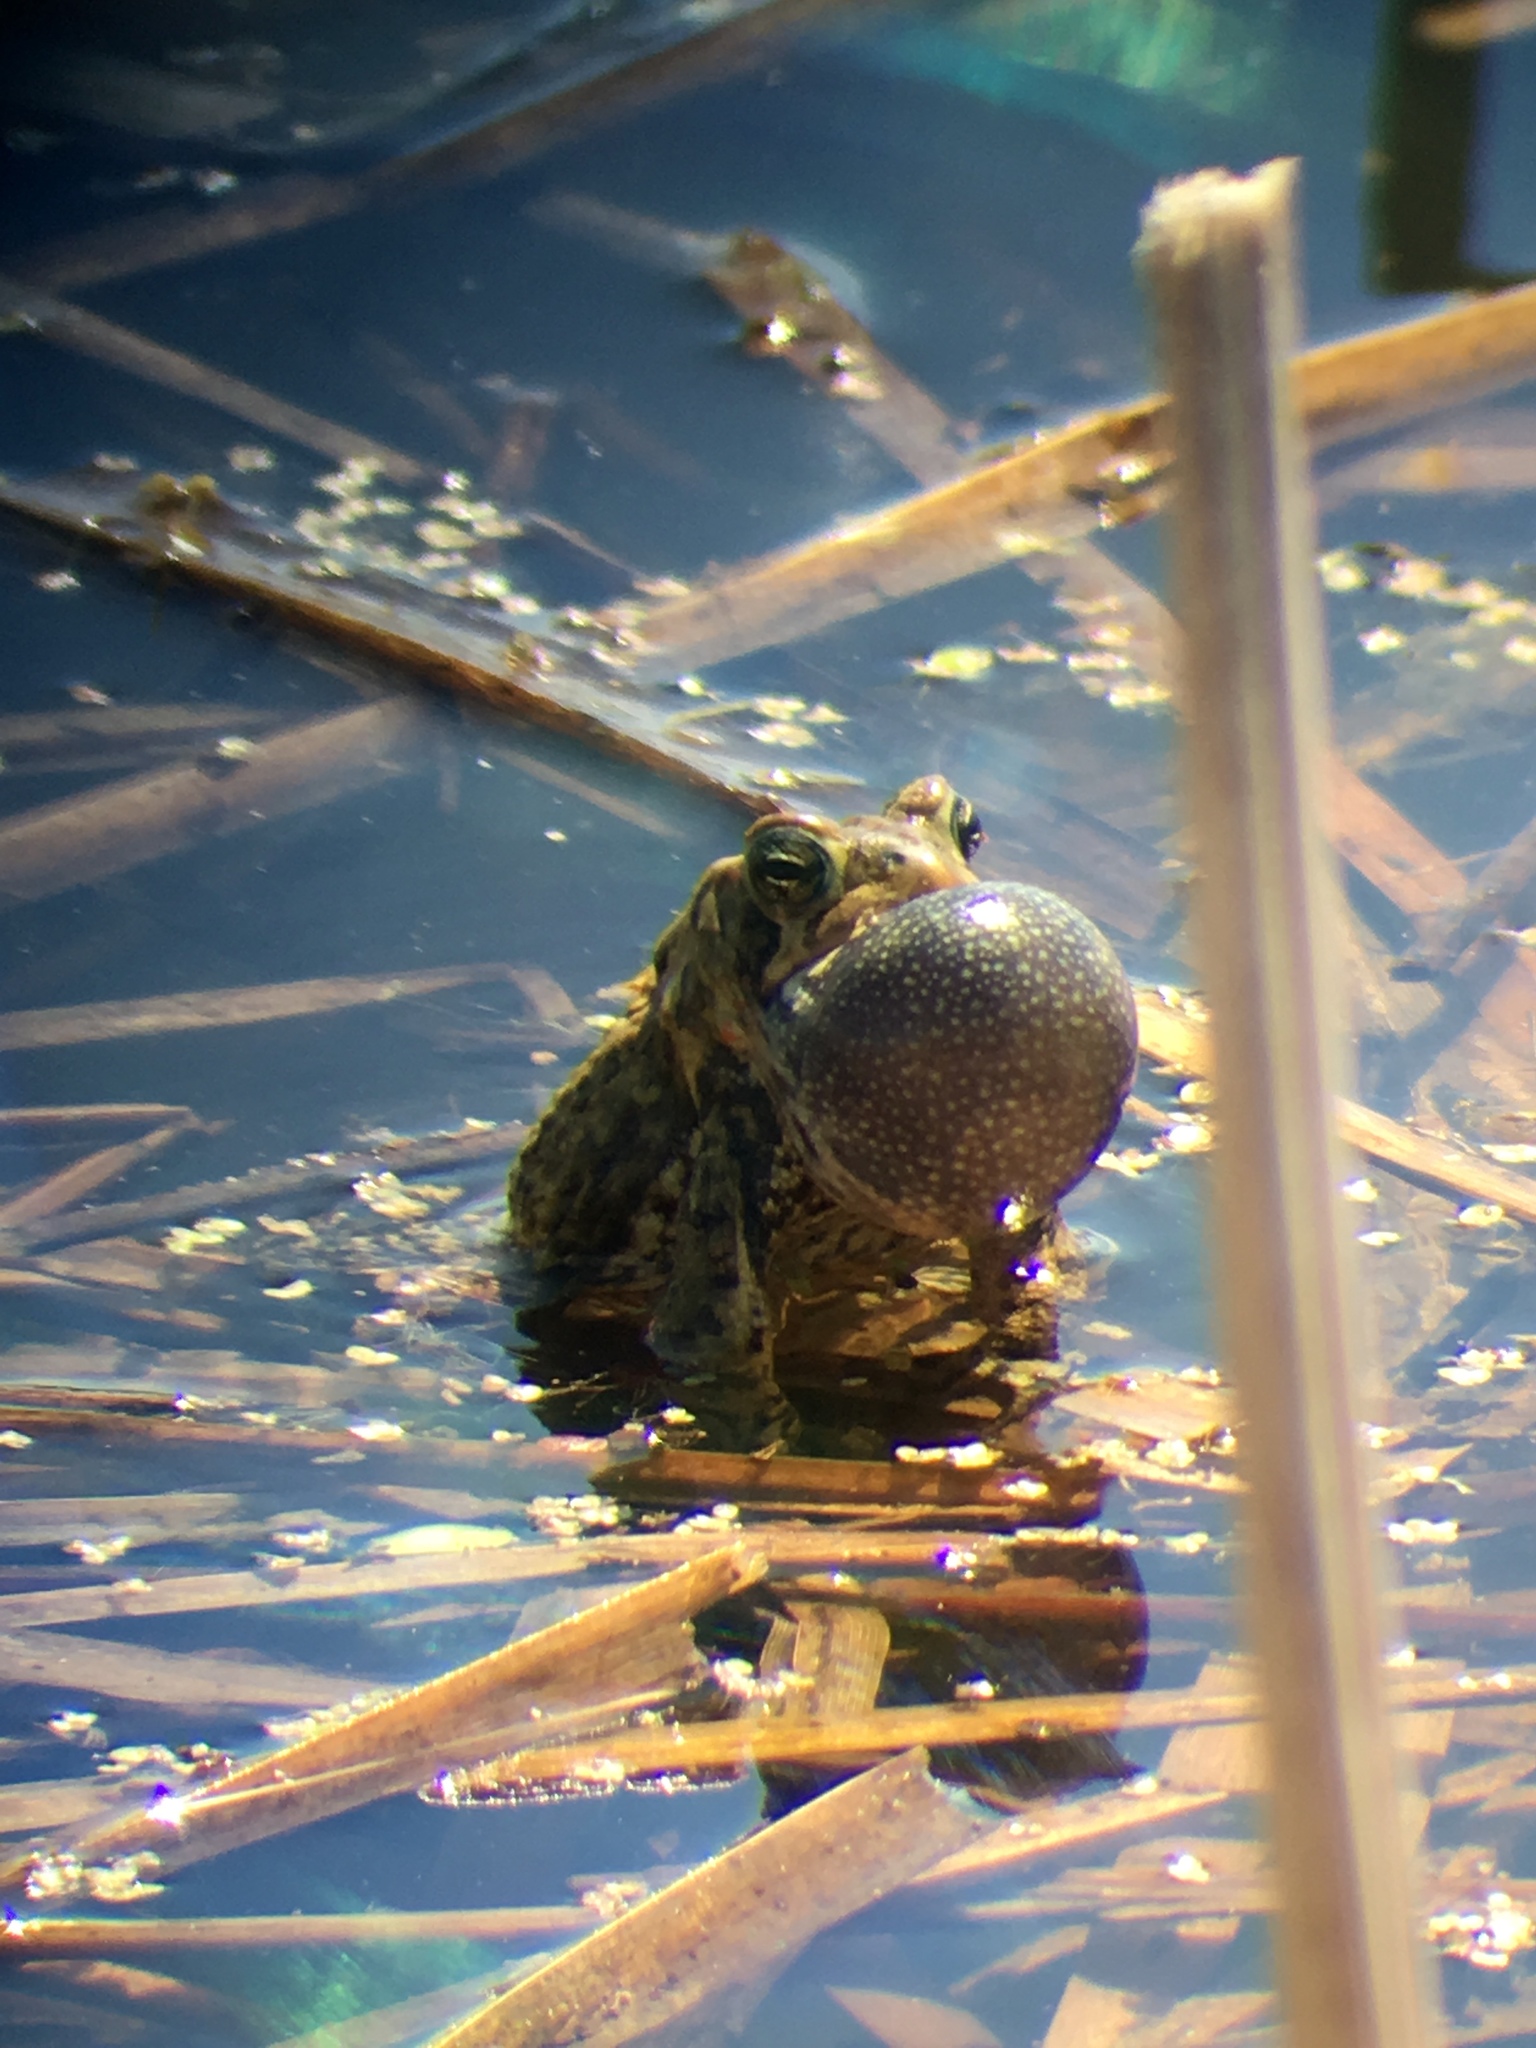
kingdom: Animalia
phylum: Chordata
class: Amphibia
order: Anura
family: Bufonidae
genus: Anaxyrus
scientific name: Anaxyrus americanus
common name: American toad
